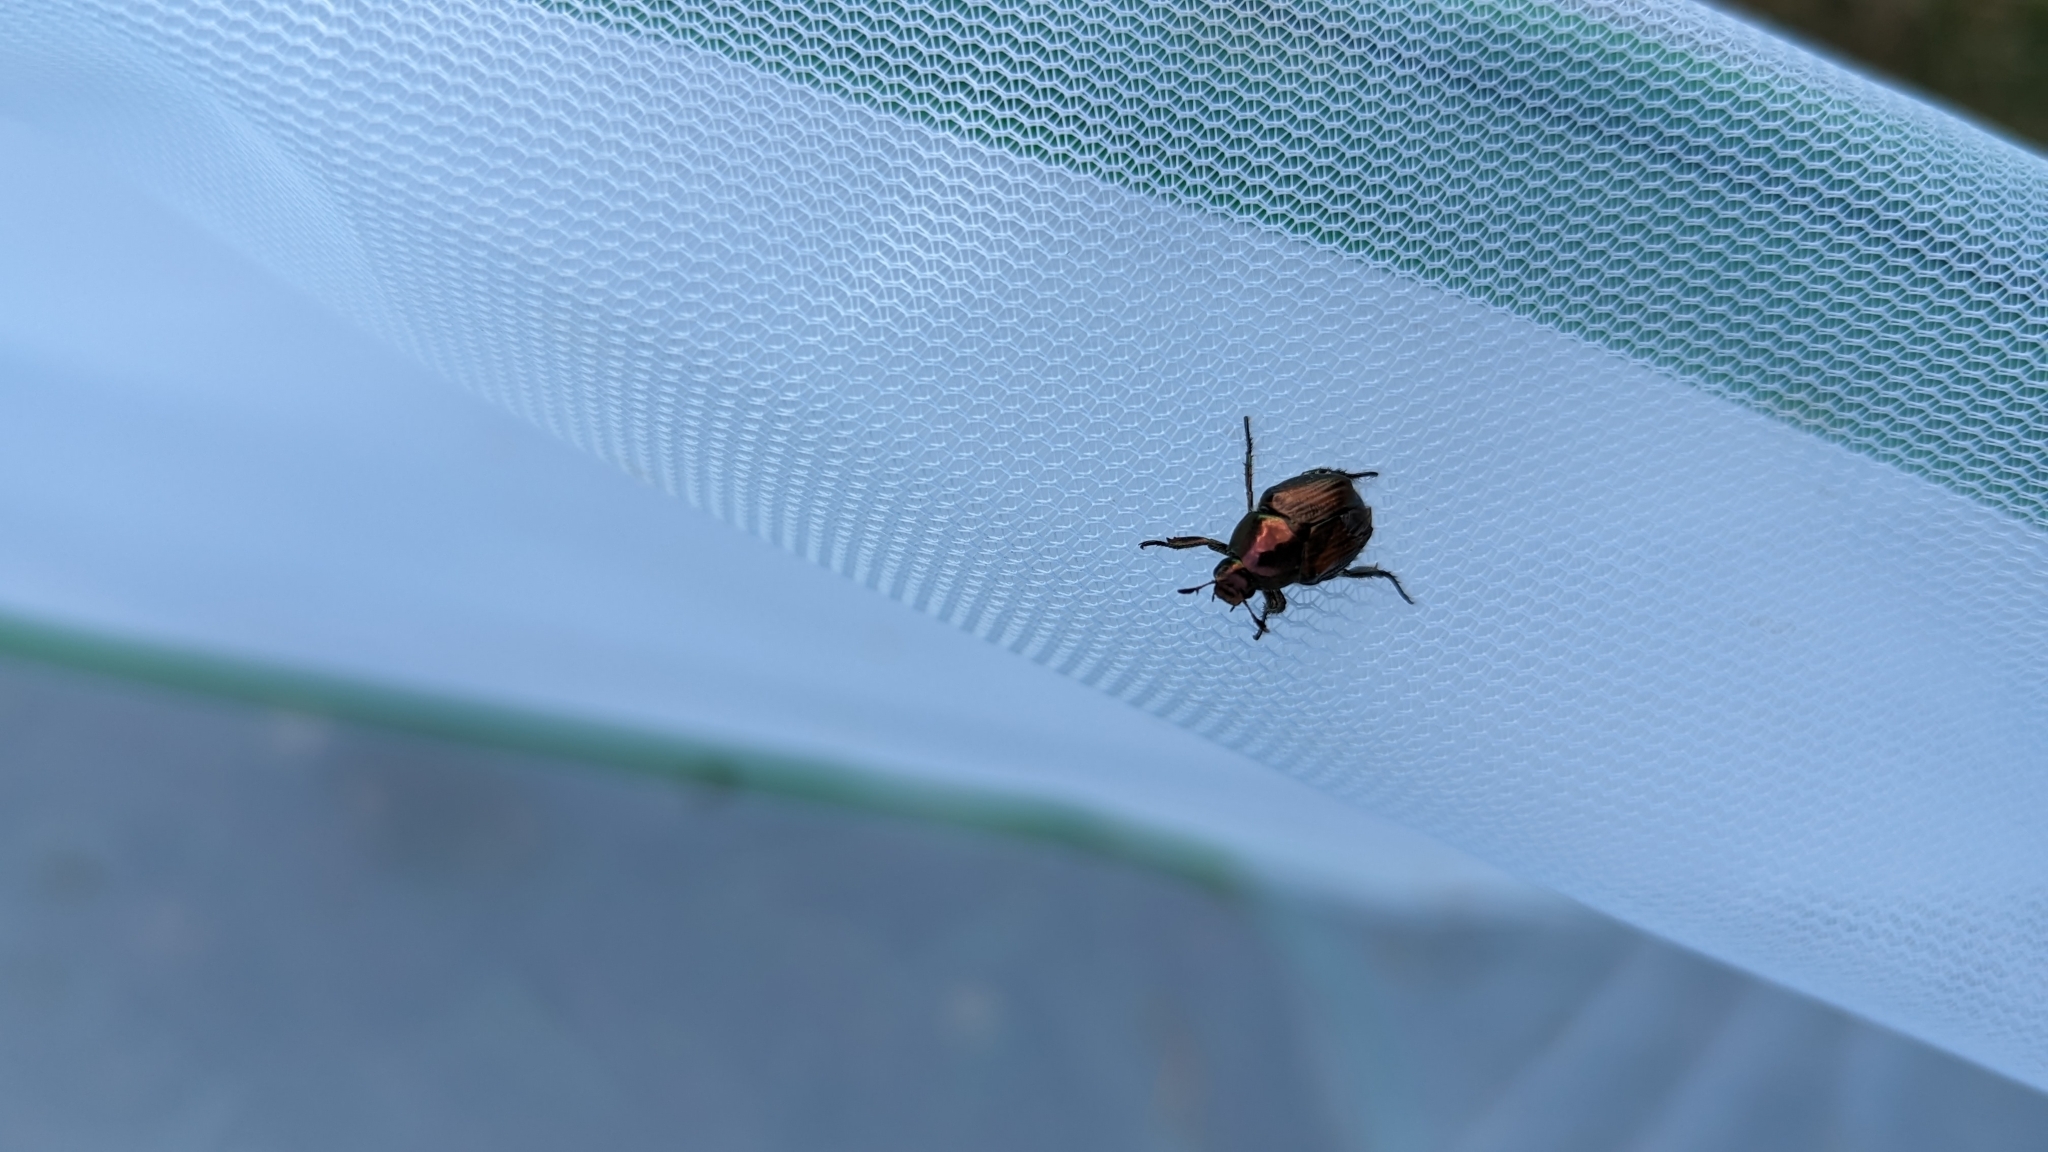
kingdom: Animalia
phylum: Arthropoda
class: Insecta
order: Coleoptera
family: Scarabaeidae
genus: Popillia
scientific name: Popillia japonica
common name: Japanese beetle
